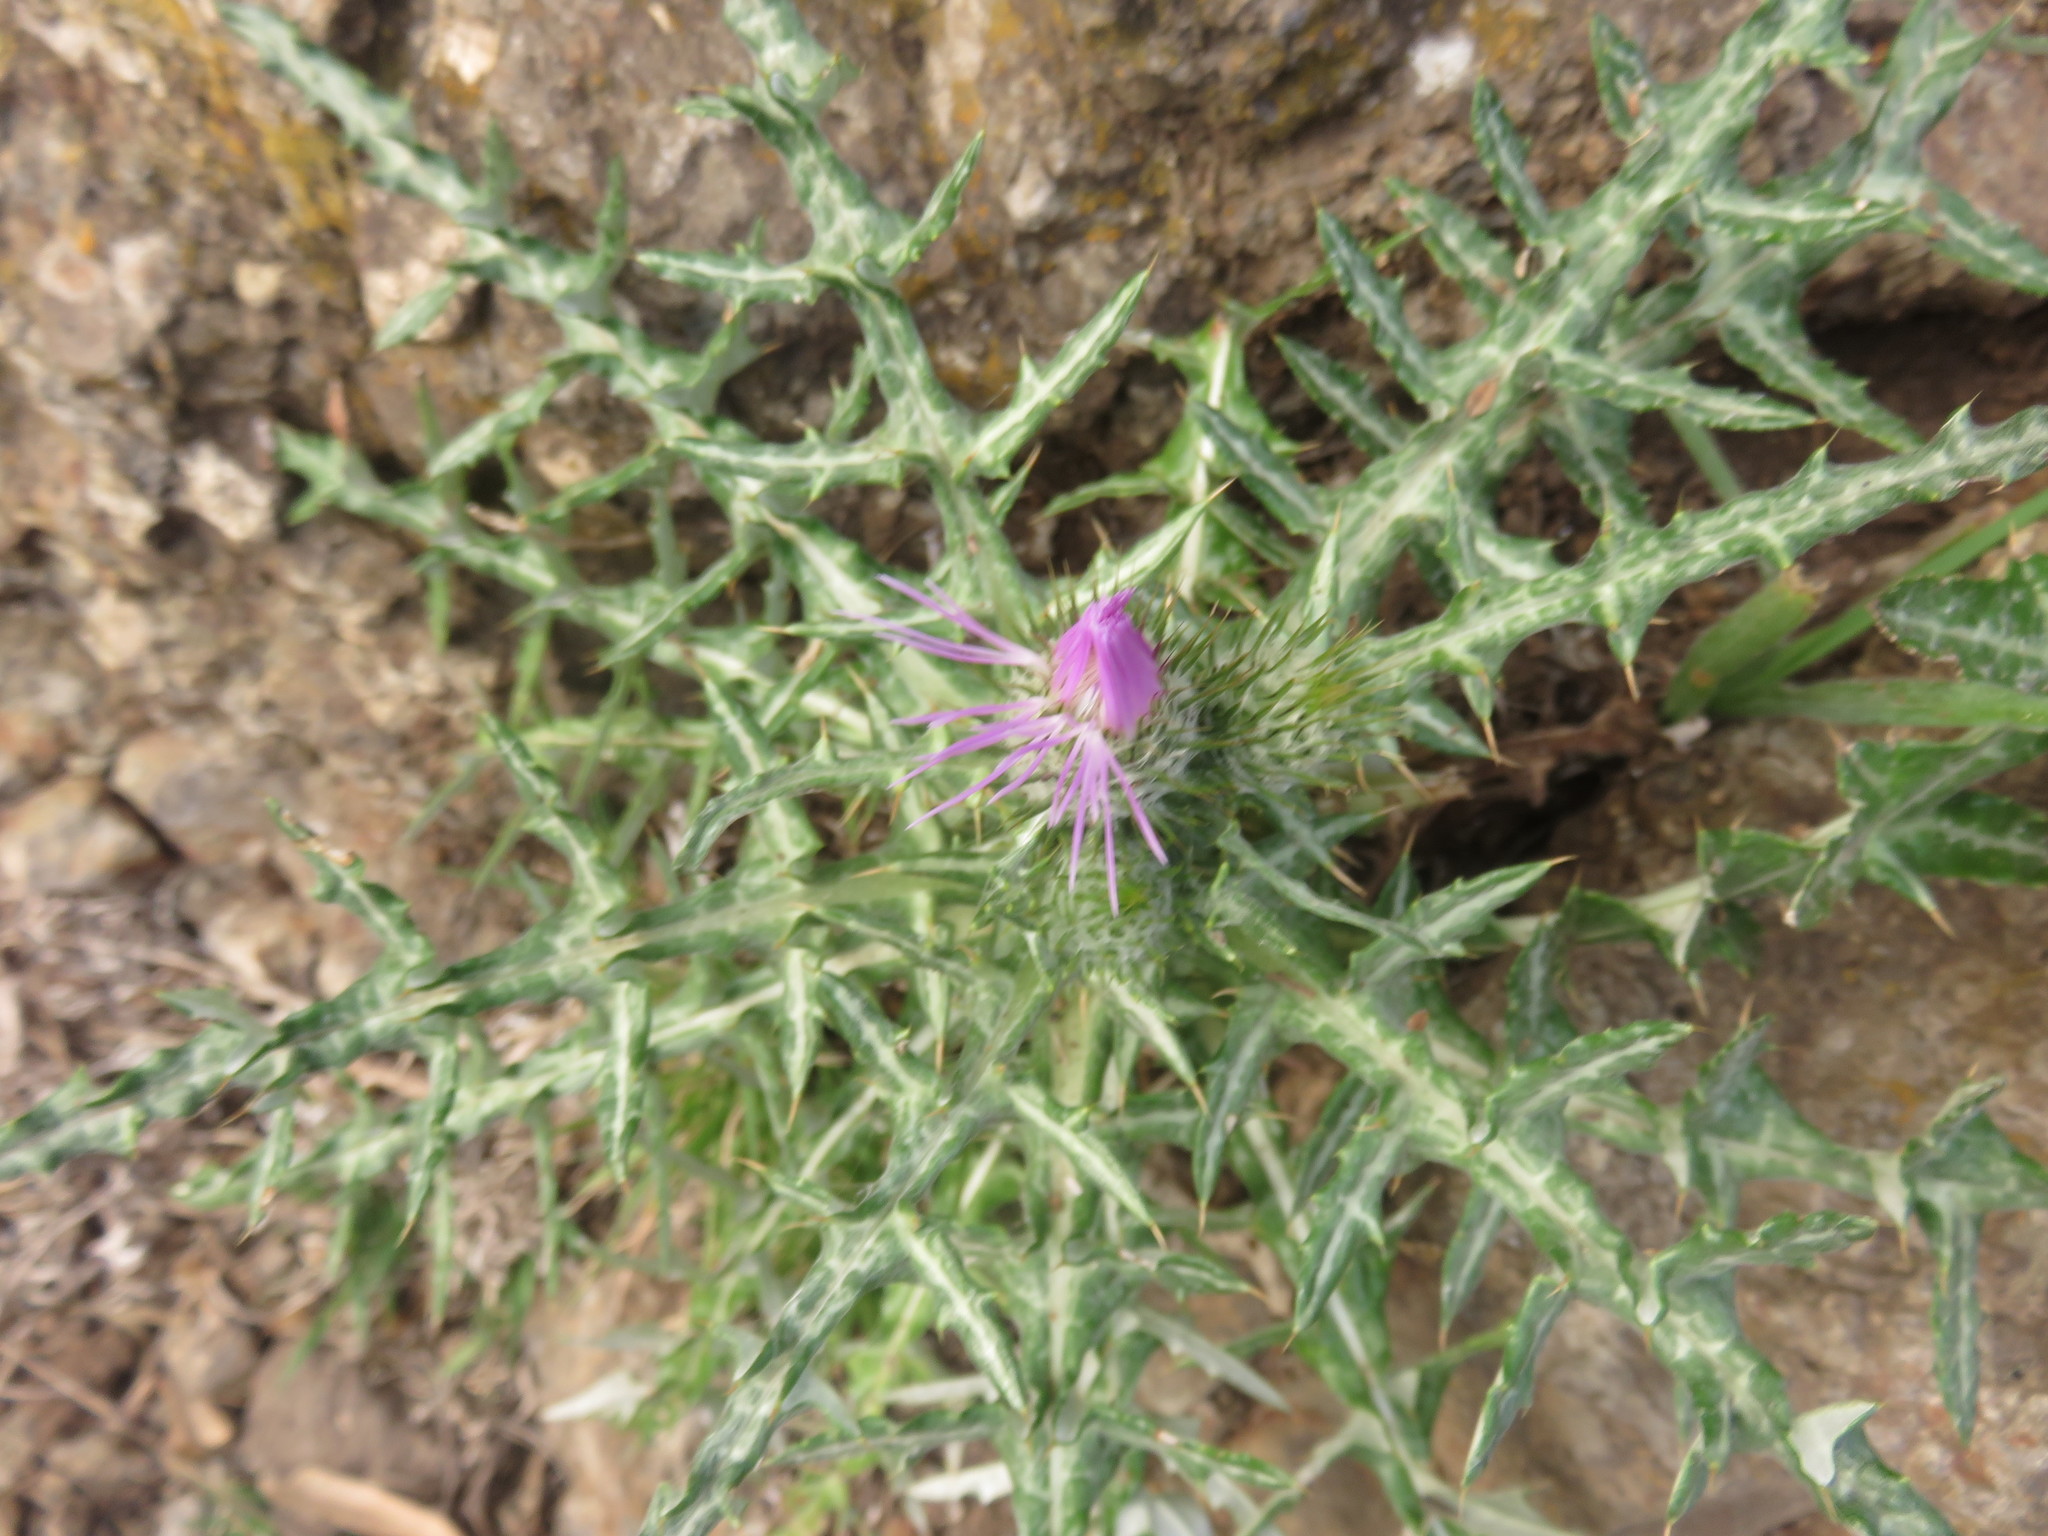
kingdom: Plantae
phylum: Tracheophyta
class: Magnoliopsida
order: Asterales
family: Asteraceae
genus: Galactites
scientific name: Galactites tomentosa
